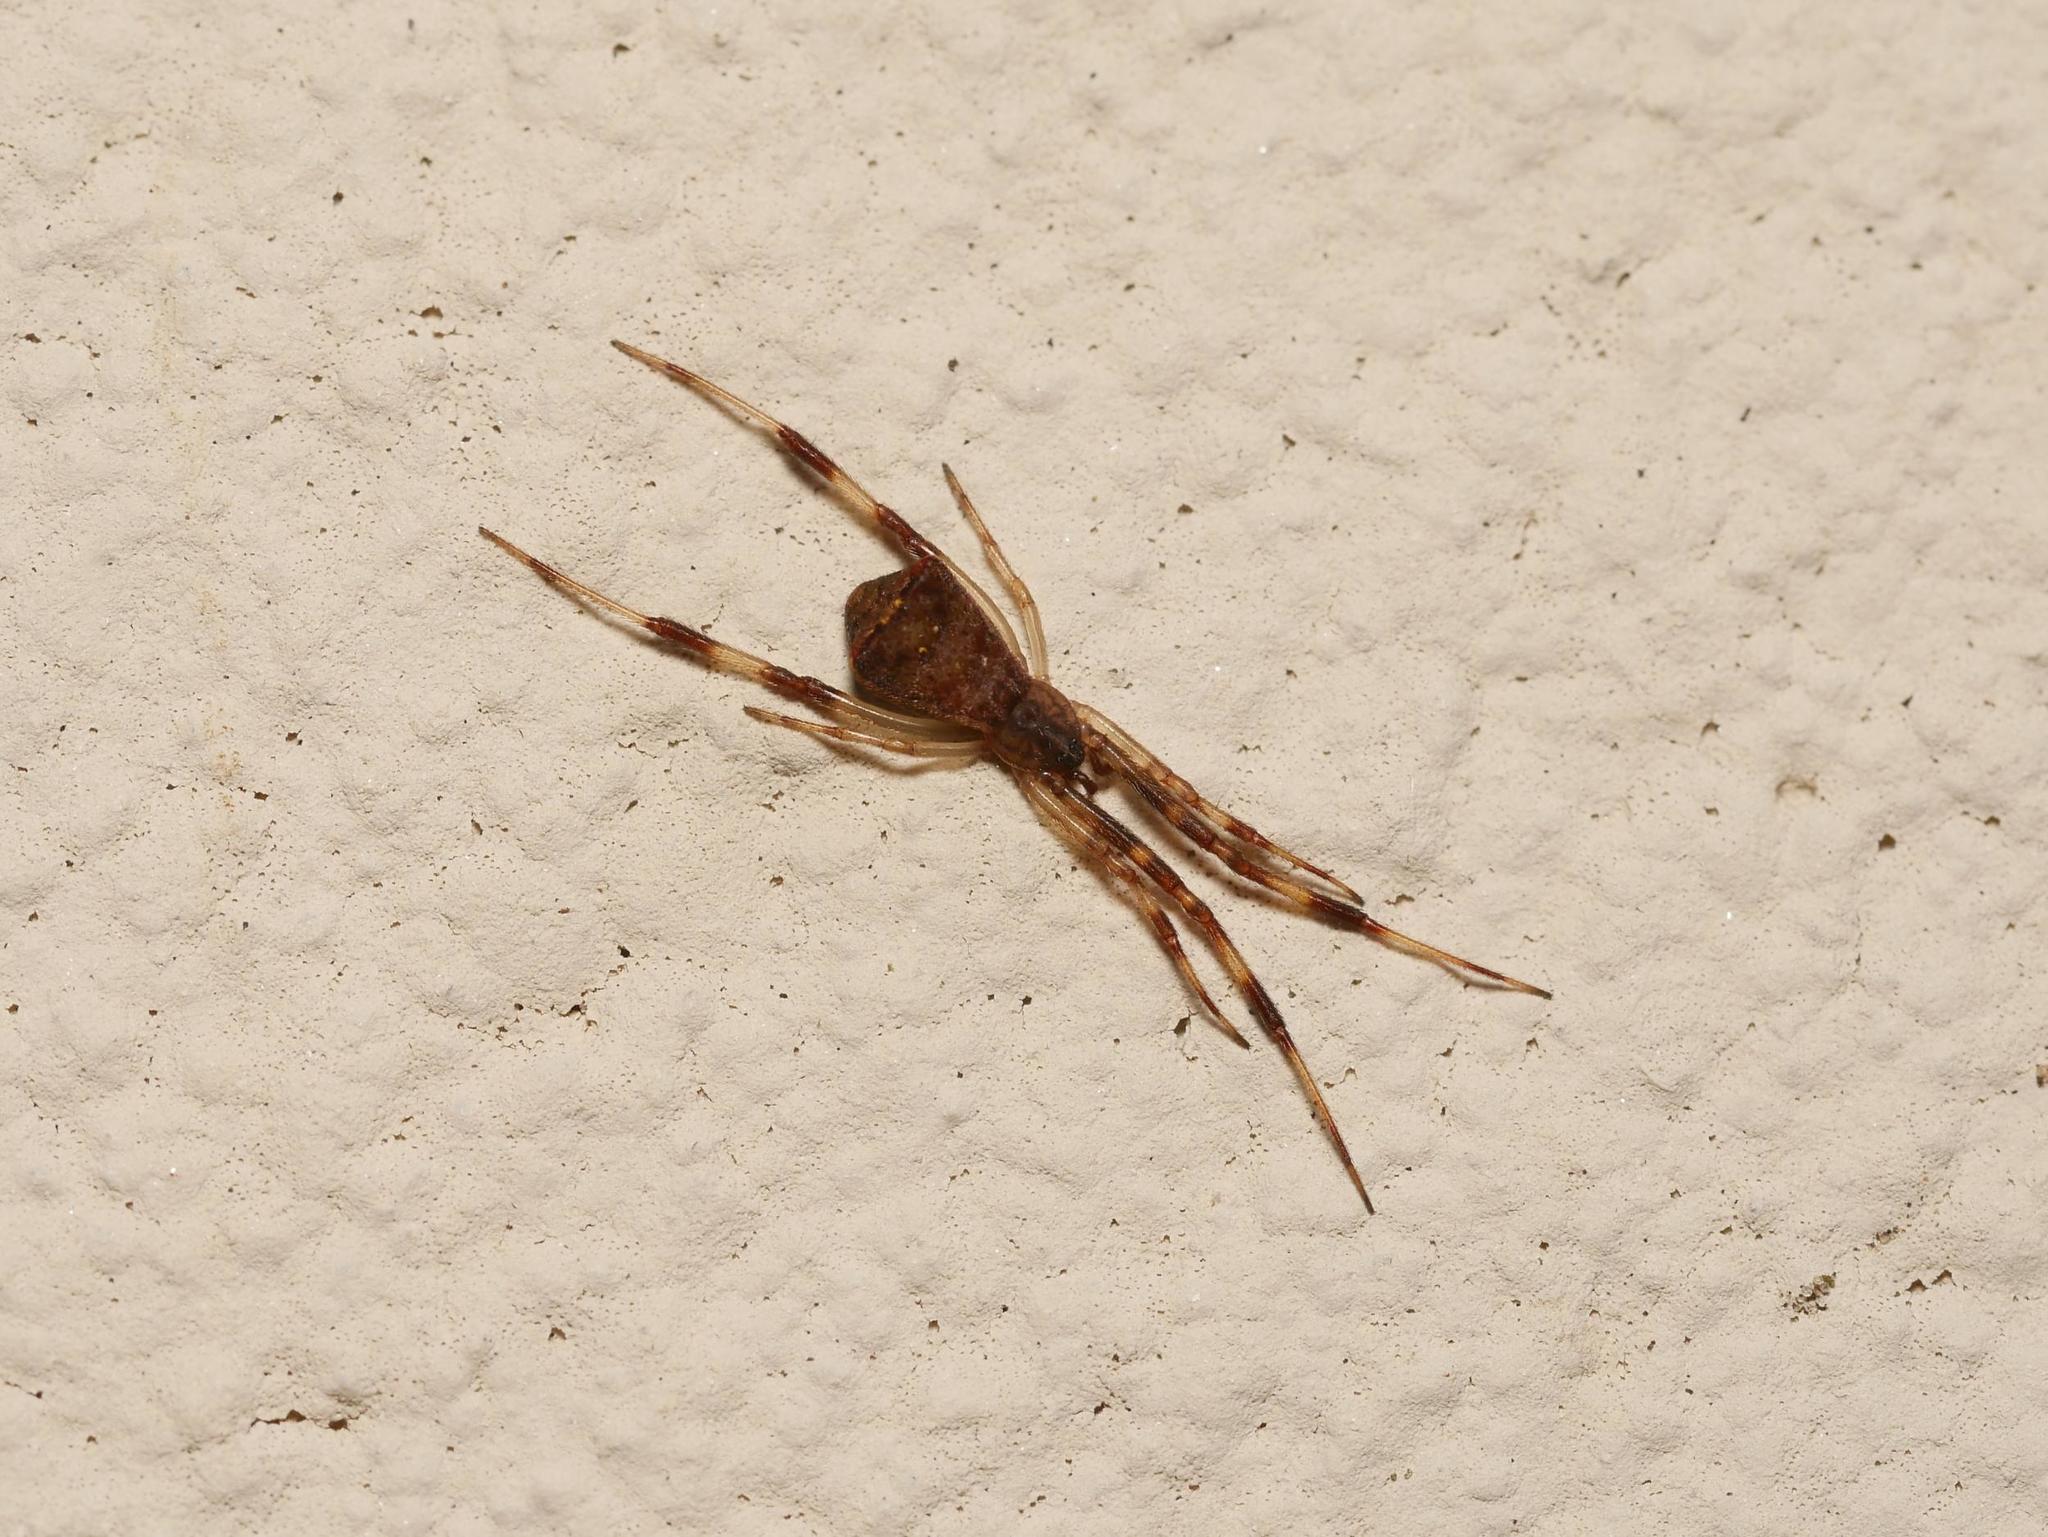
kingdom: Animalia
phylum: Arthropoda
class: Arachnida
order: Araneae
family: Theridiidae
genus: Episinus
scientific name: Episinus angulatus
